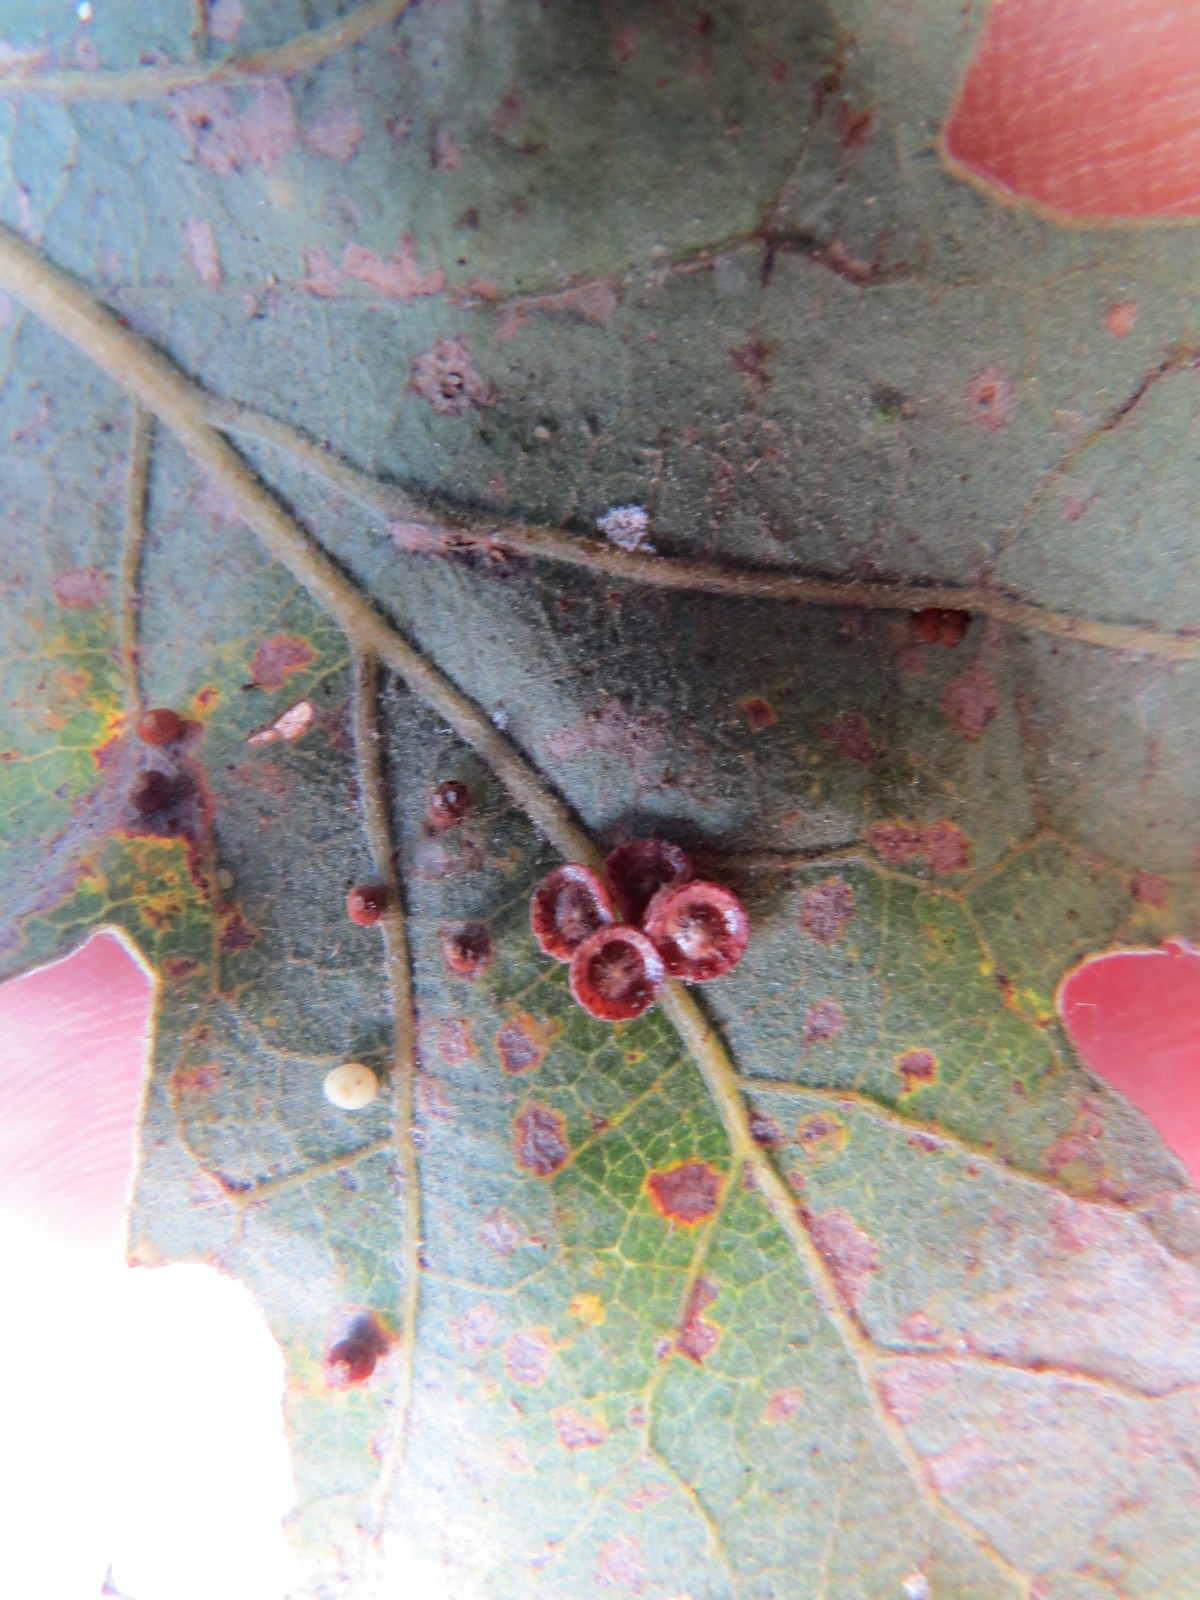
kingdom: Animalia
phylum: Arthropoda
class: Insecta
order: Hymenoptera
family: Cynipidae
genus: Andricus
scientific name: Andricus
